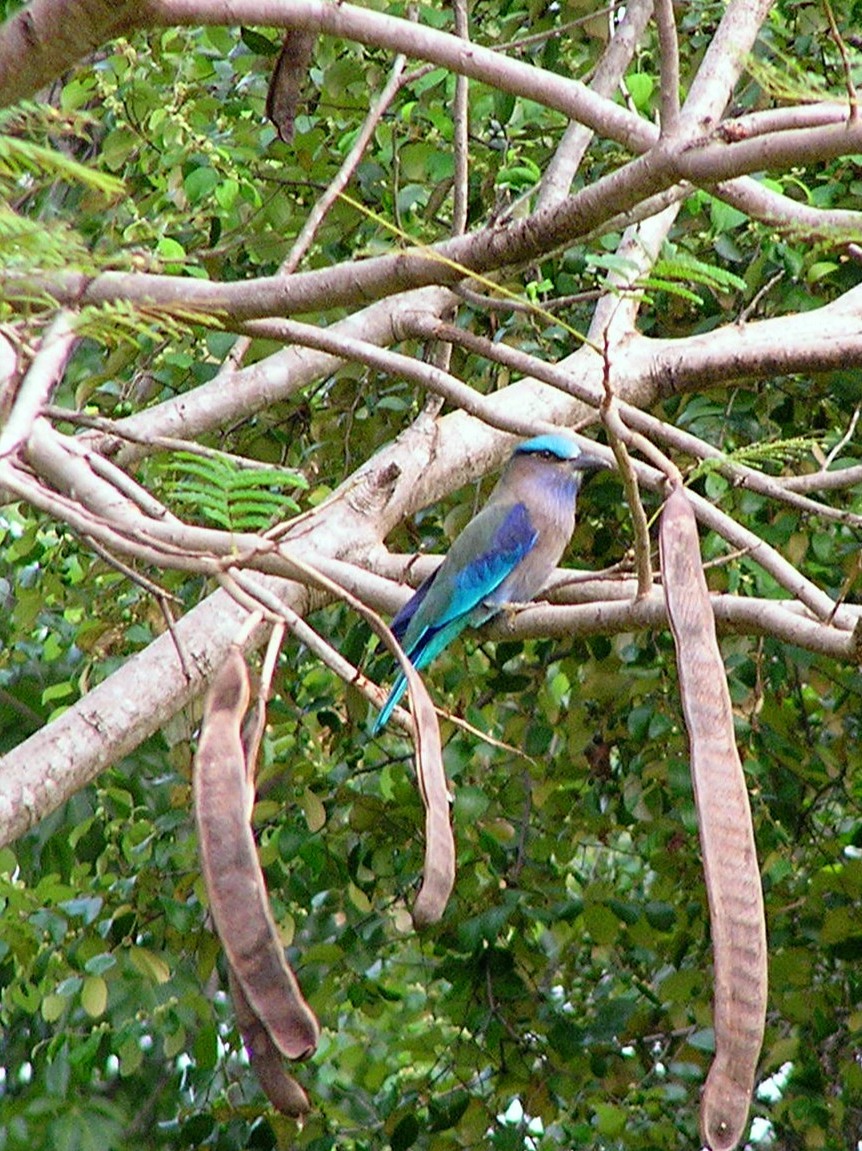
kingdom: Animalia
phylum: Chordata
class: Aves
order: Coraciiformes
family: Coraciidae
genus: Coracias
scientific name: Coracias affinis
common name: Indochinese roller
